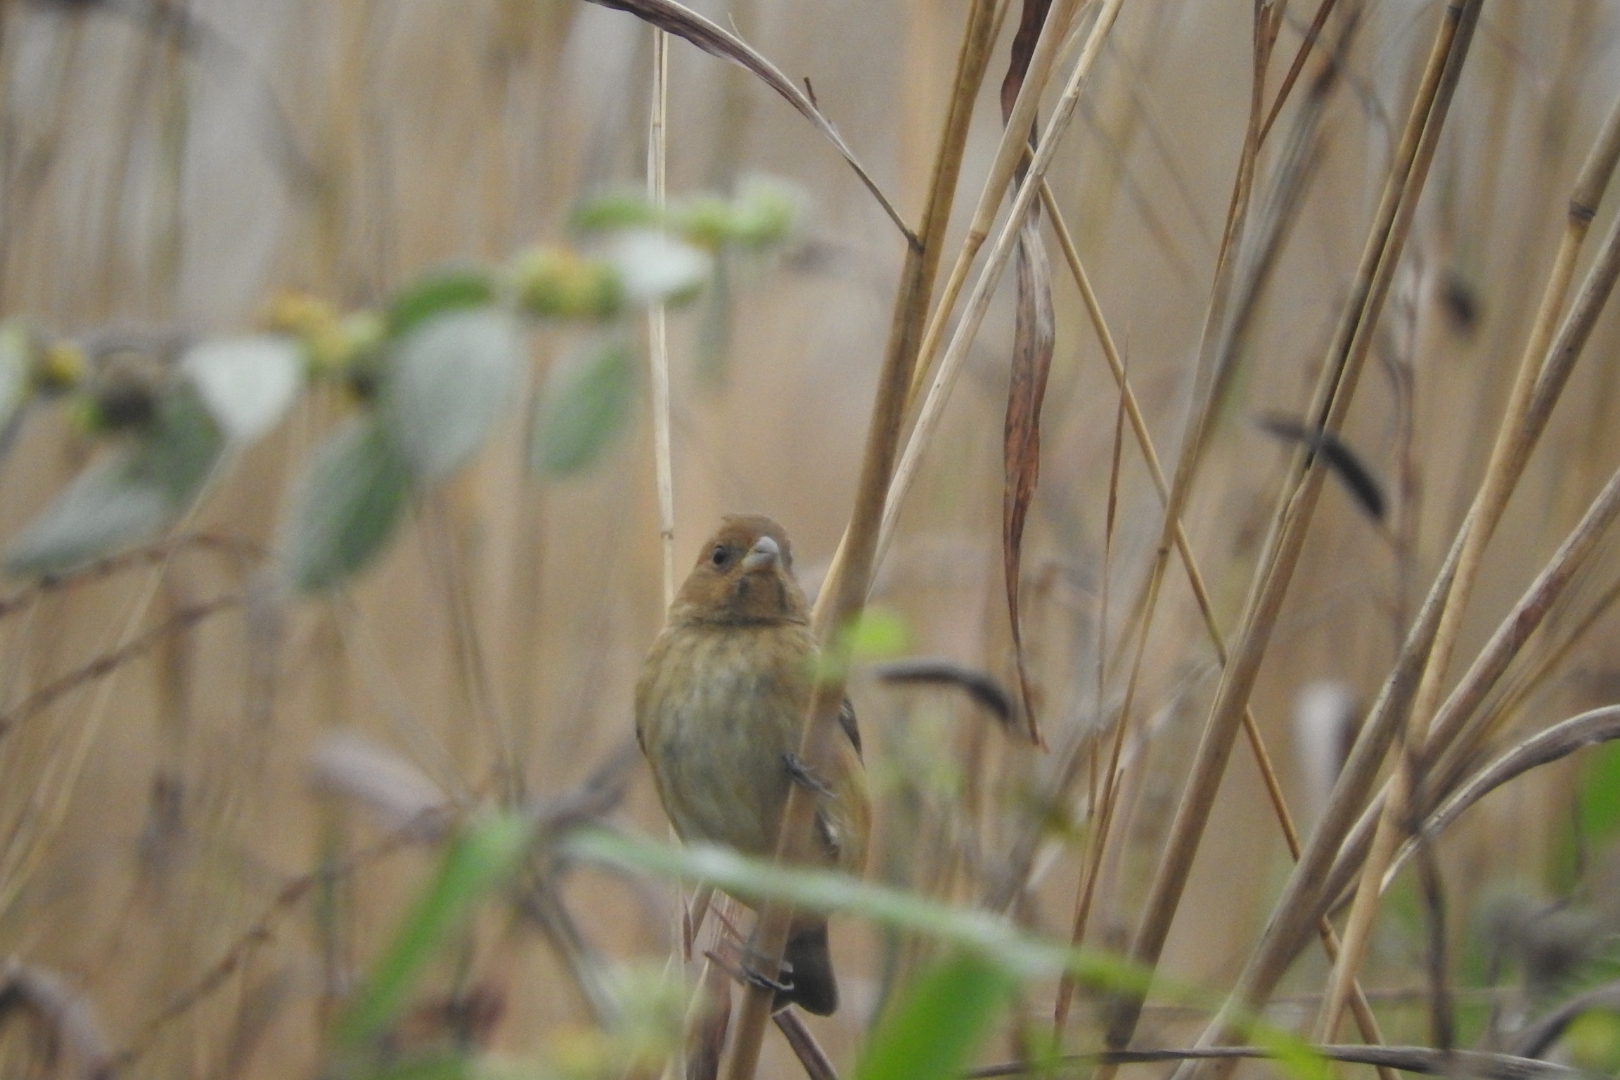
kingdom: Animalia
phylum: Chordata
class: Aves
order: Passeriformes
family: Cardinalidae
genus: Passerina
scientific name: Passerina cyanea
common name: Indigo bunting
